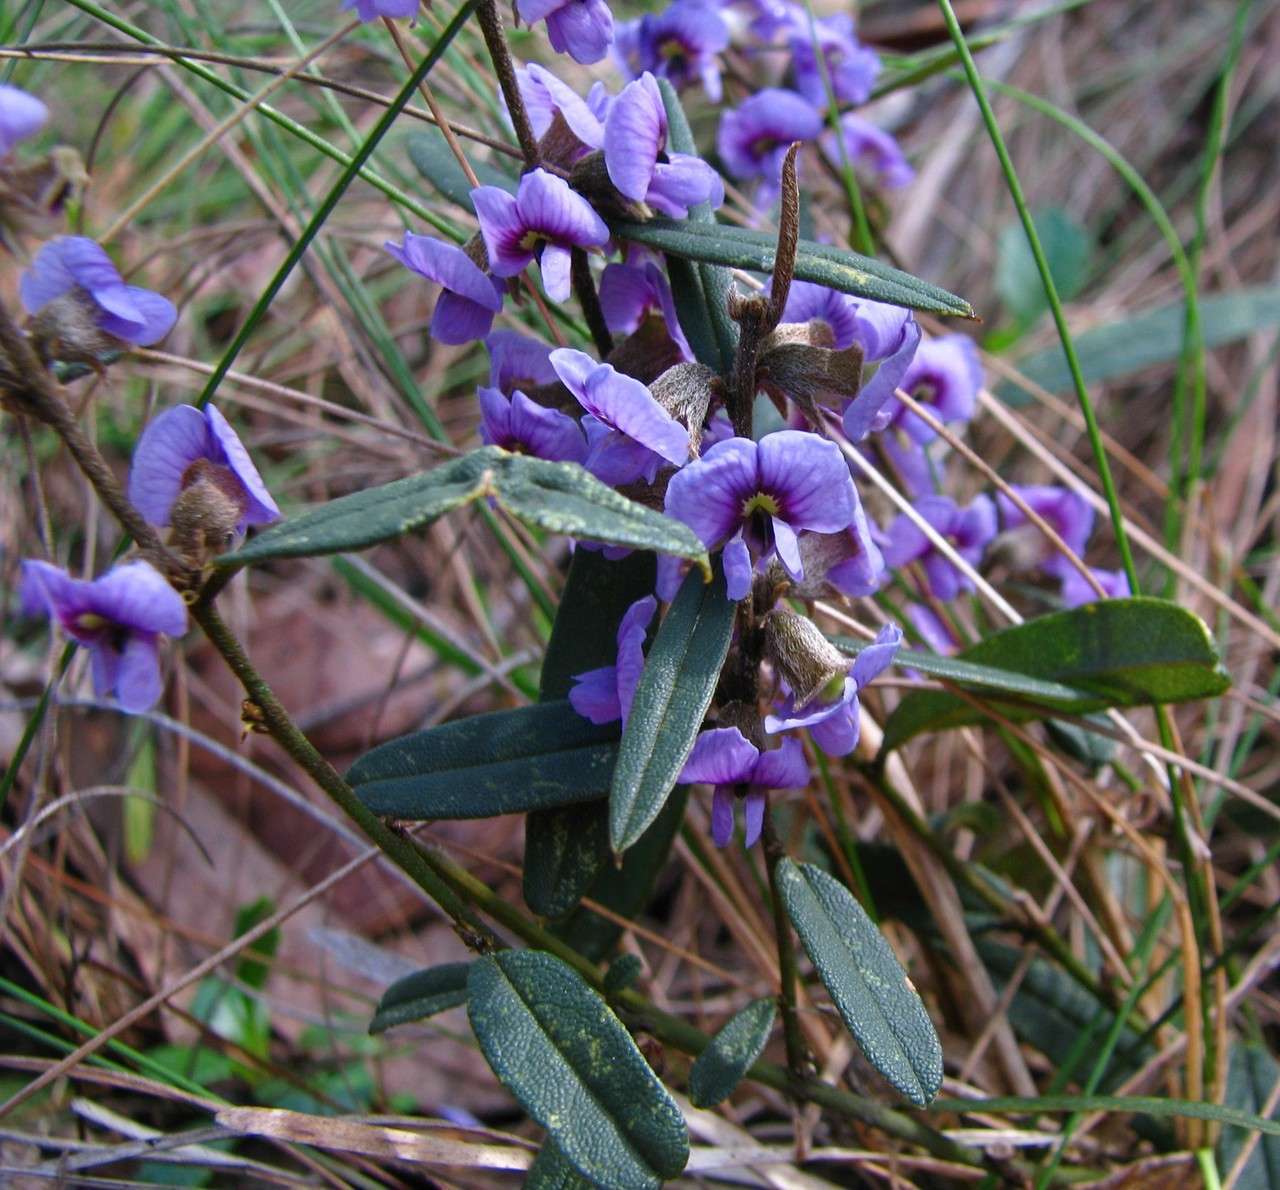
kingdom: Plantae
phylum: Tracheophyta
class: Magnoliopsida
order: Fabales
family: Fabaceae
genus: Hovea
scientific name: Hovea heterophylla
